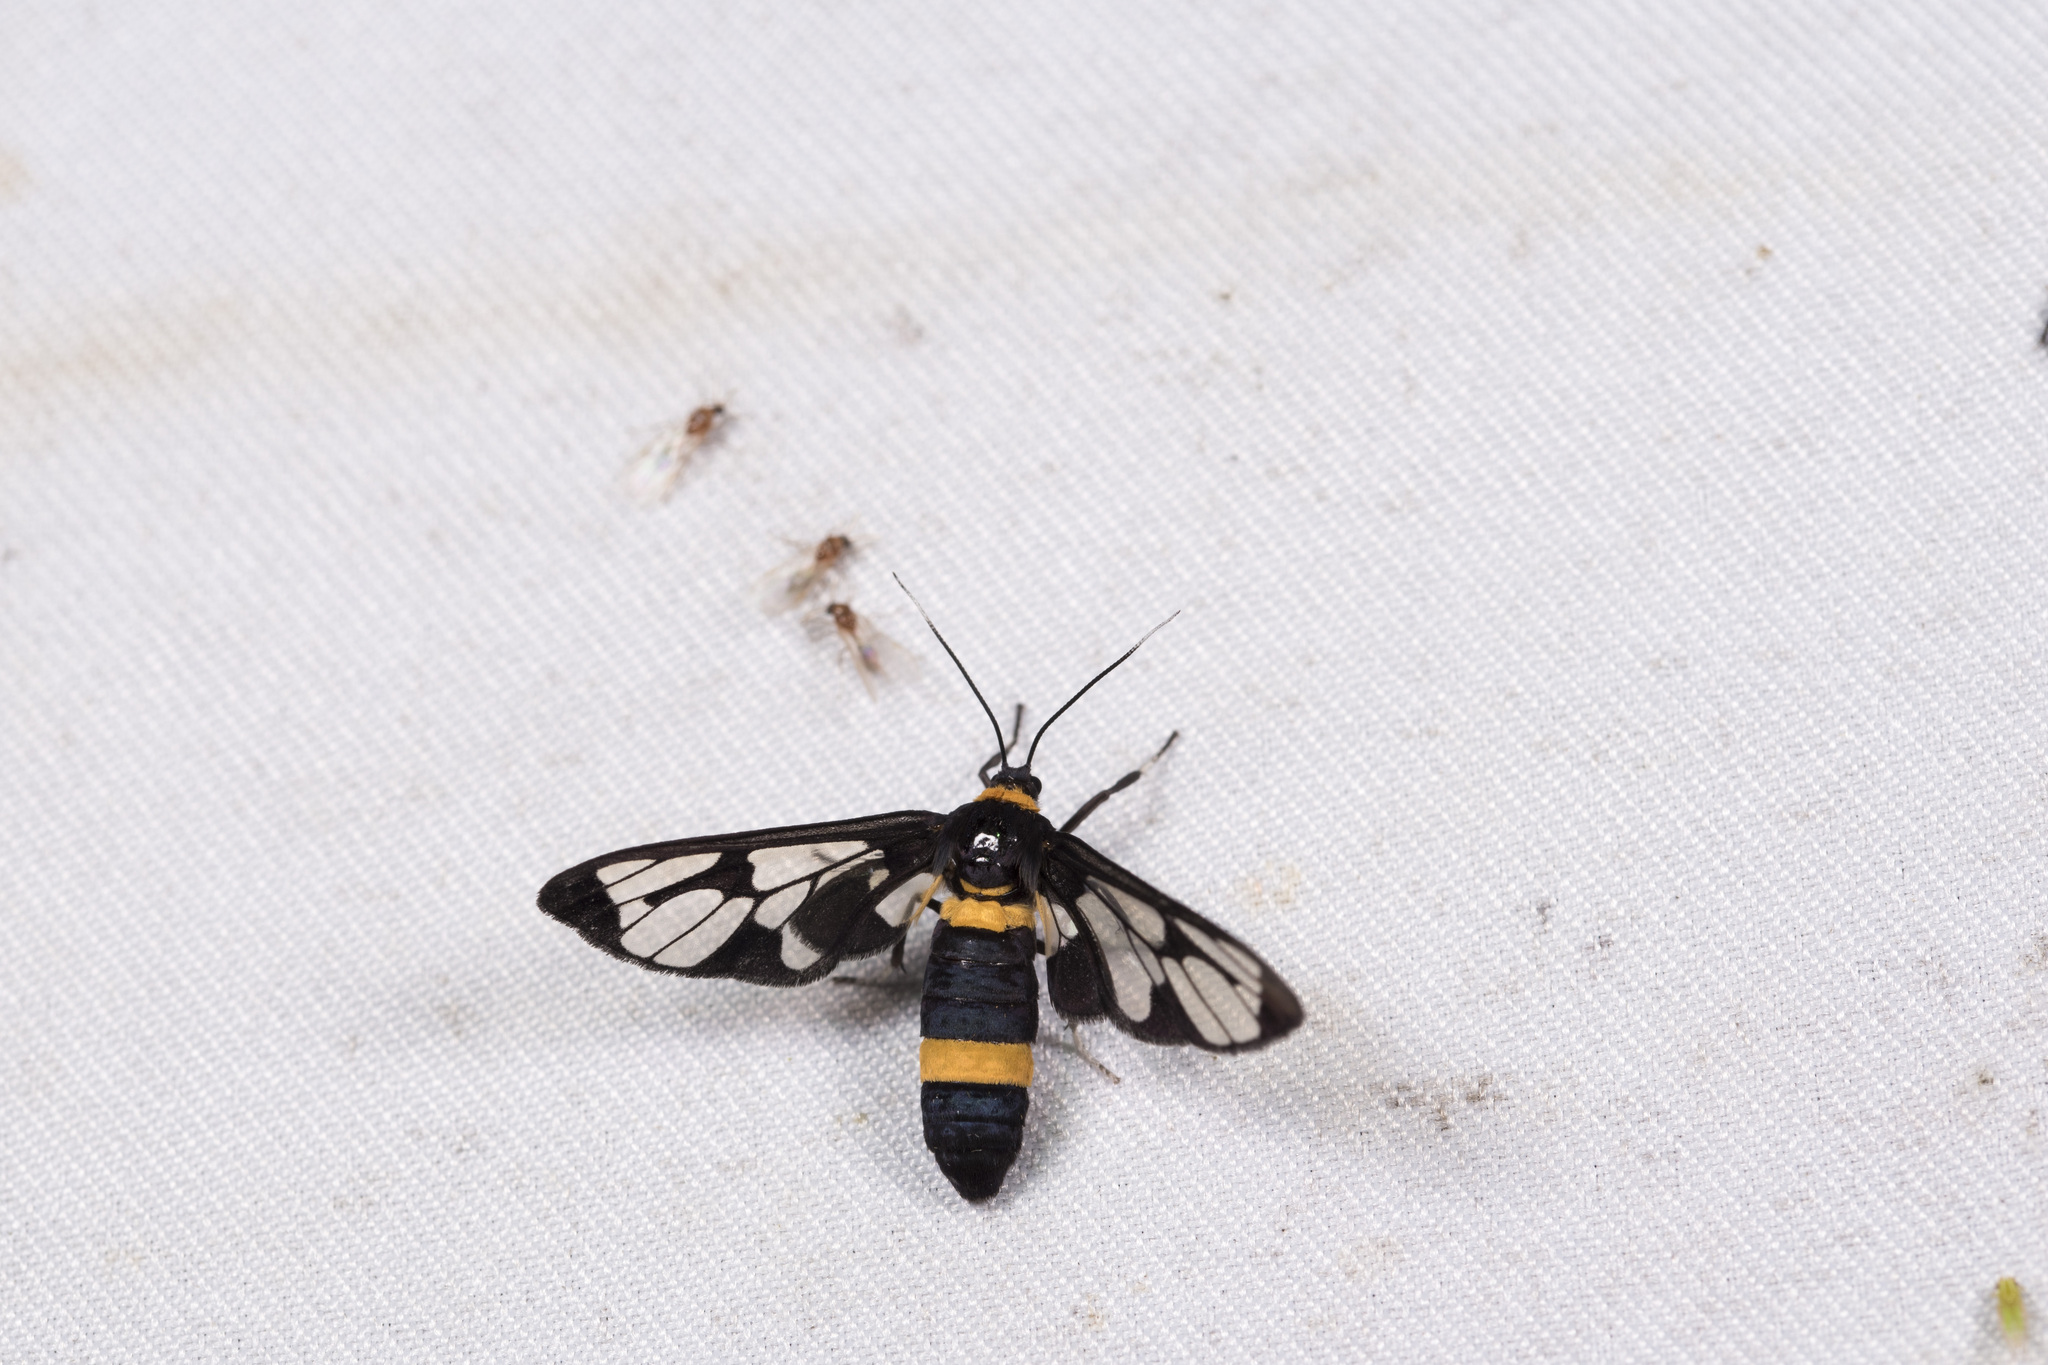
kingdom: Animalia
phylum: Arthropoda
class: Insecta
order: Lepidoptera
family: Erebidae
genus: Syntomoides
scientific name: Syntomoides imaon
